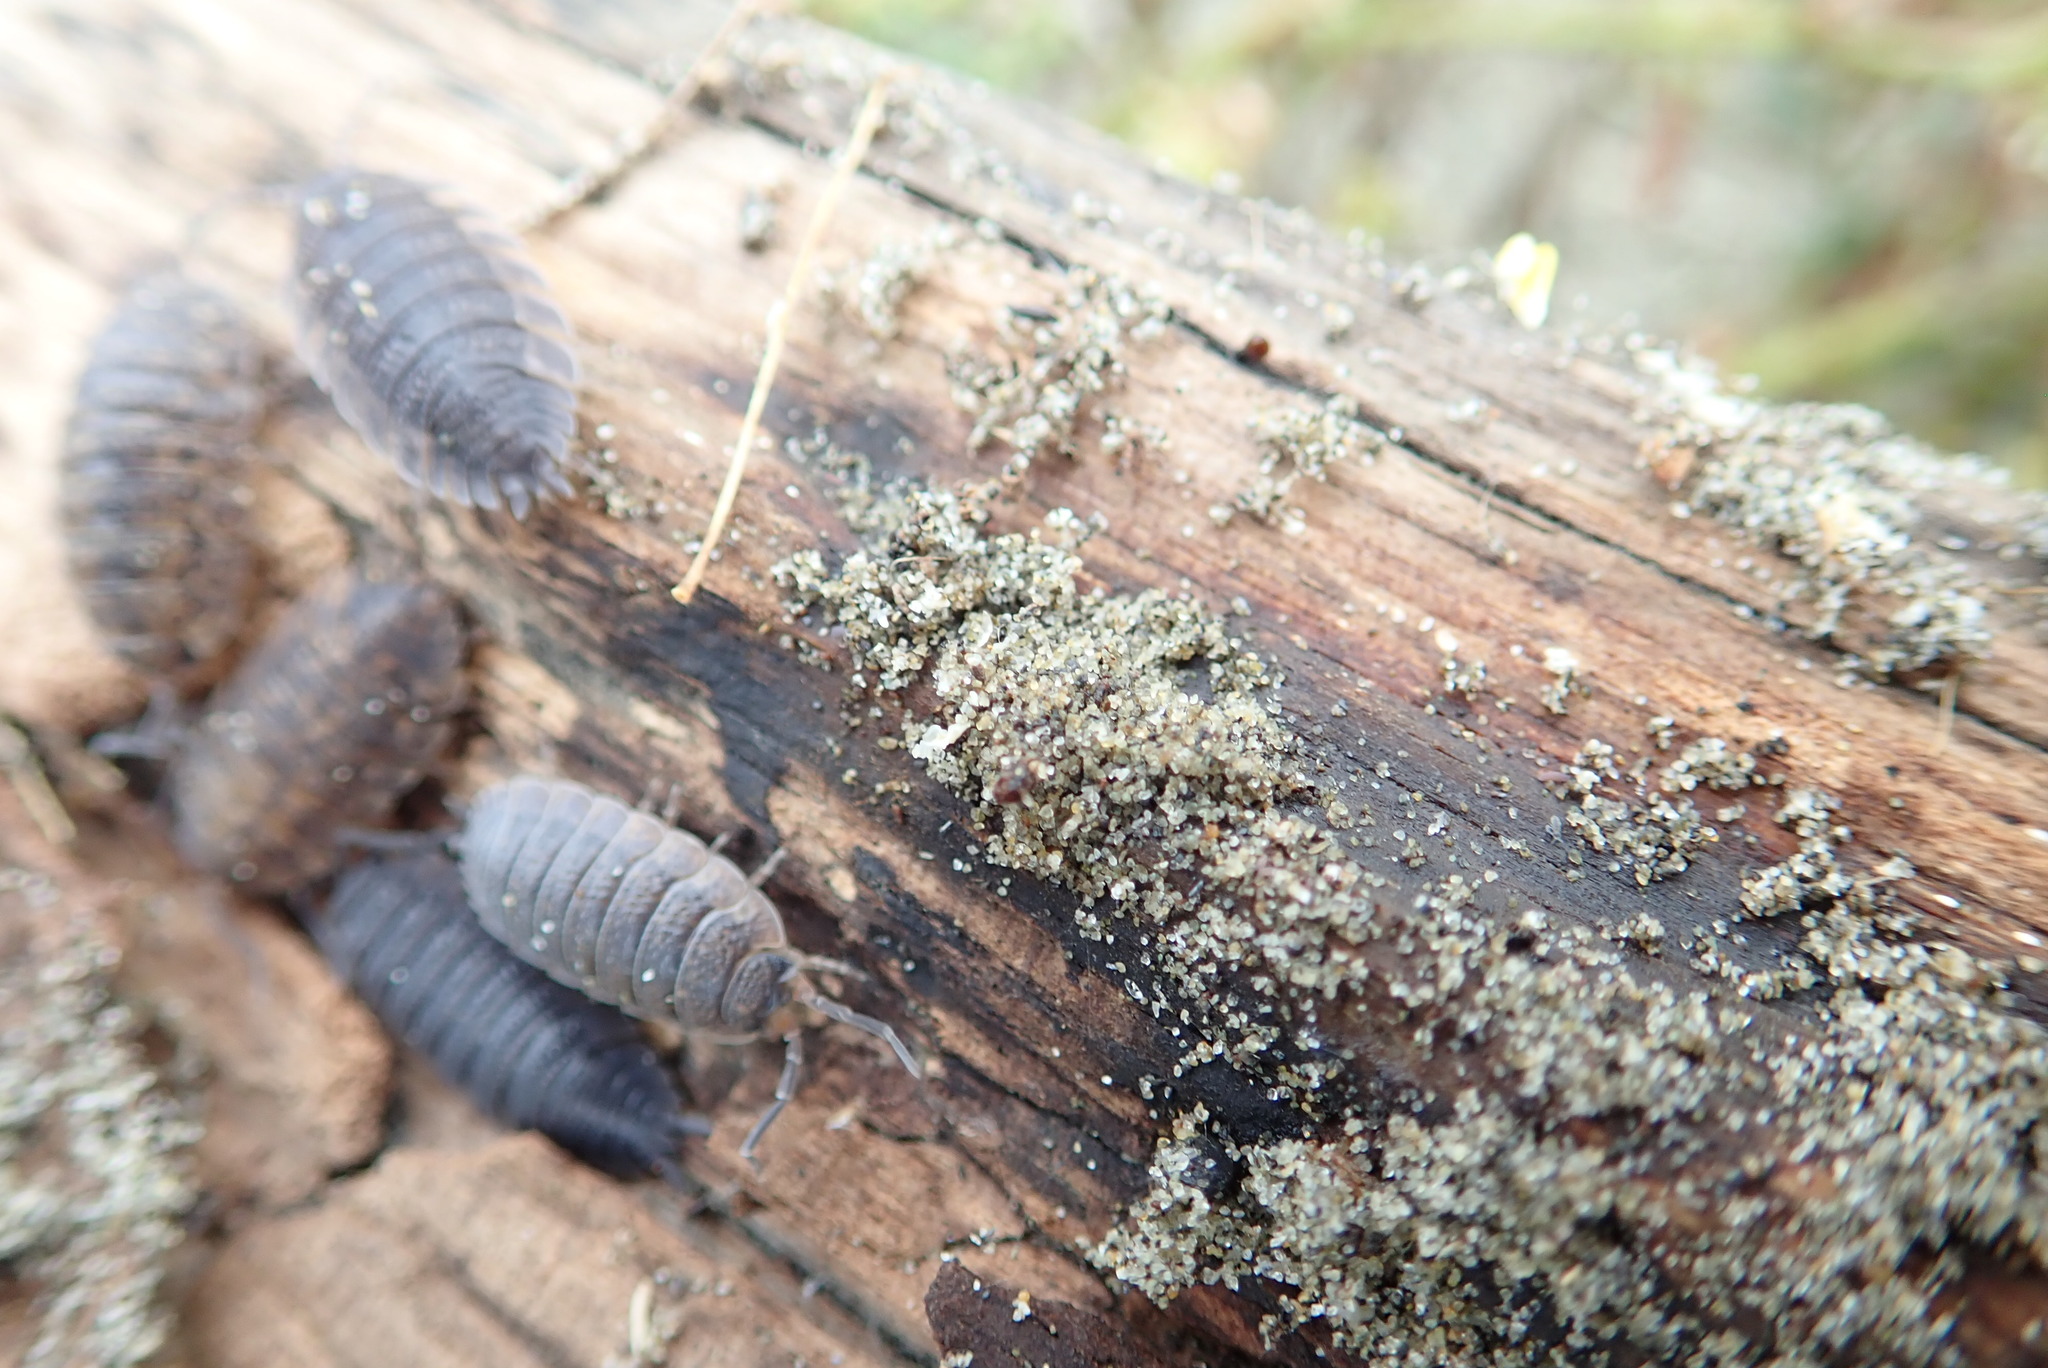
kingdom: Animalia
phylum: Arthropoda
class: Malacostraca
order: Isopoda
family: Porcellionidae
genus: Porcellio
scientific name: Porcellio scaber
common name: Common rough woodlouse
